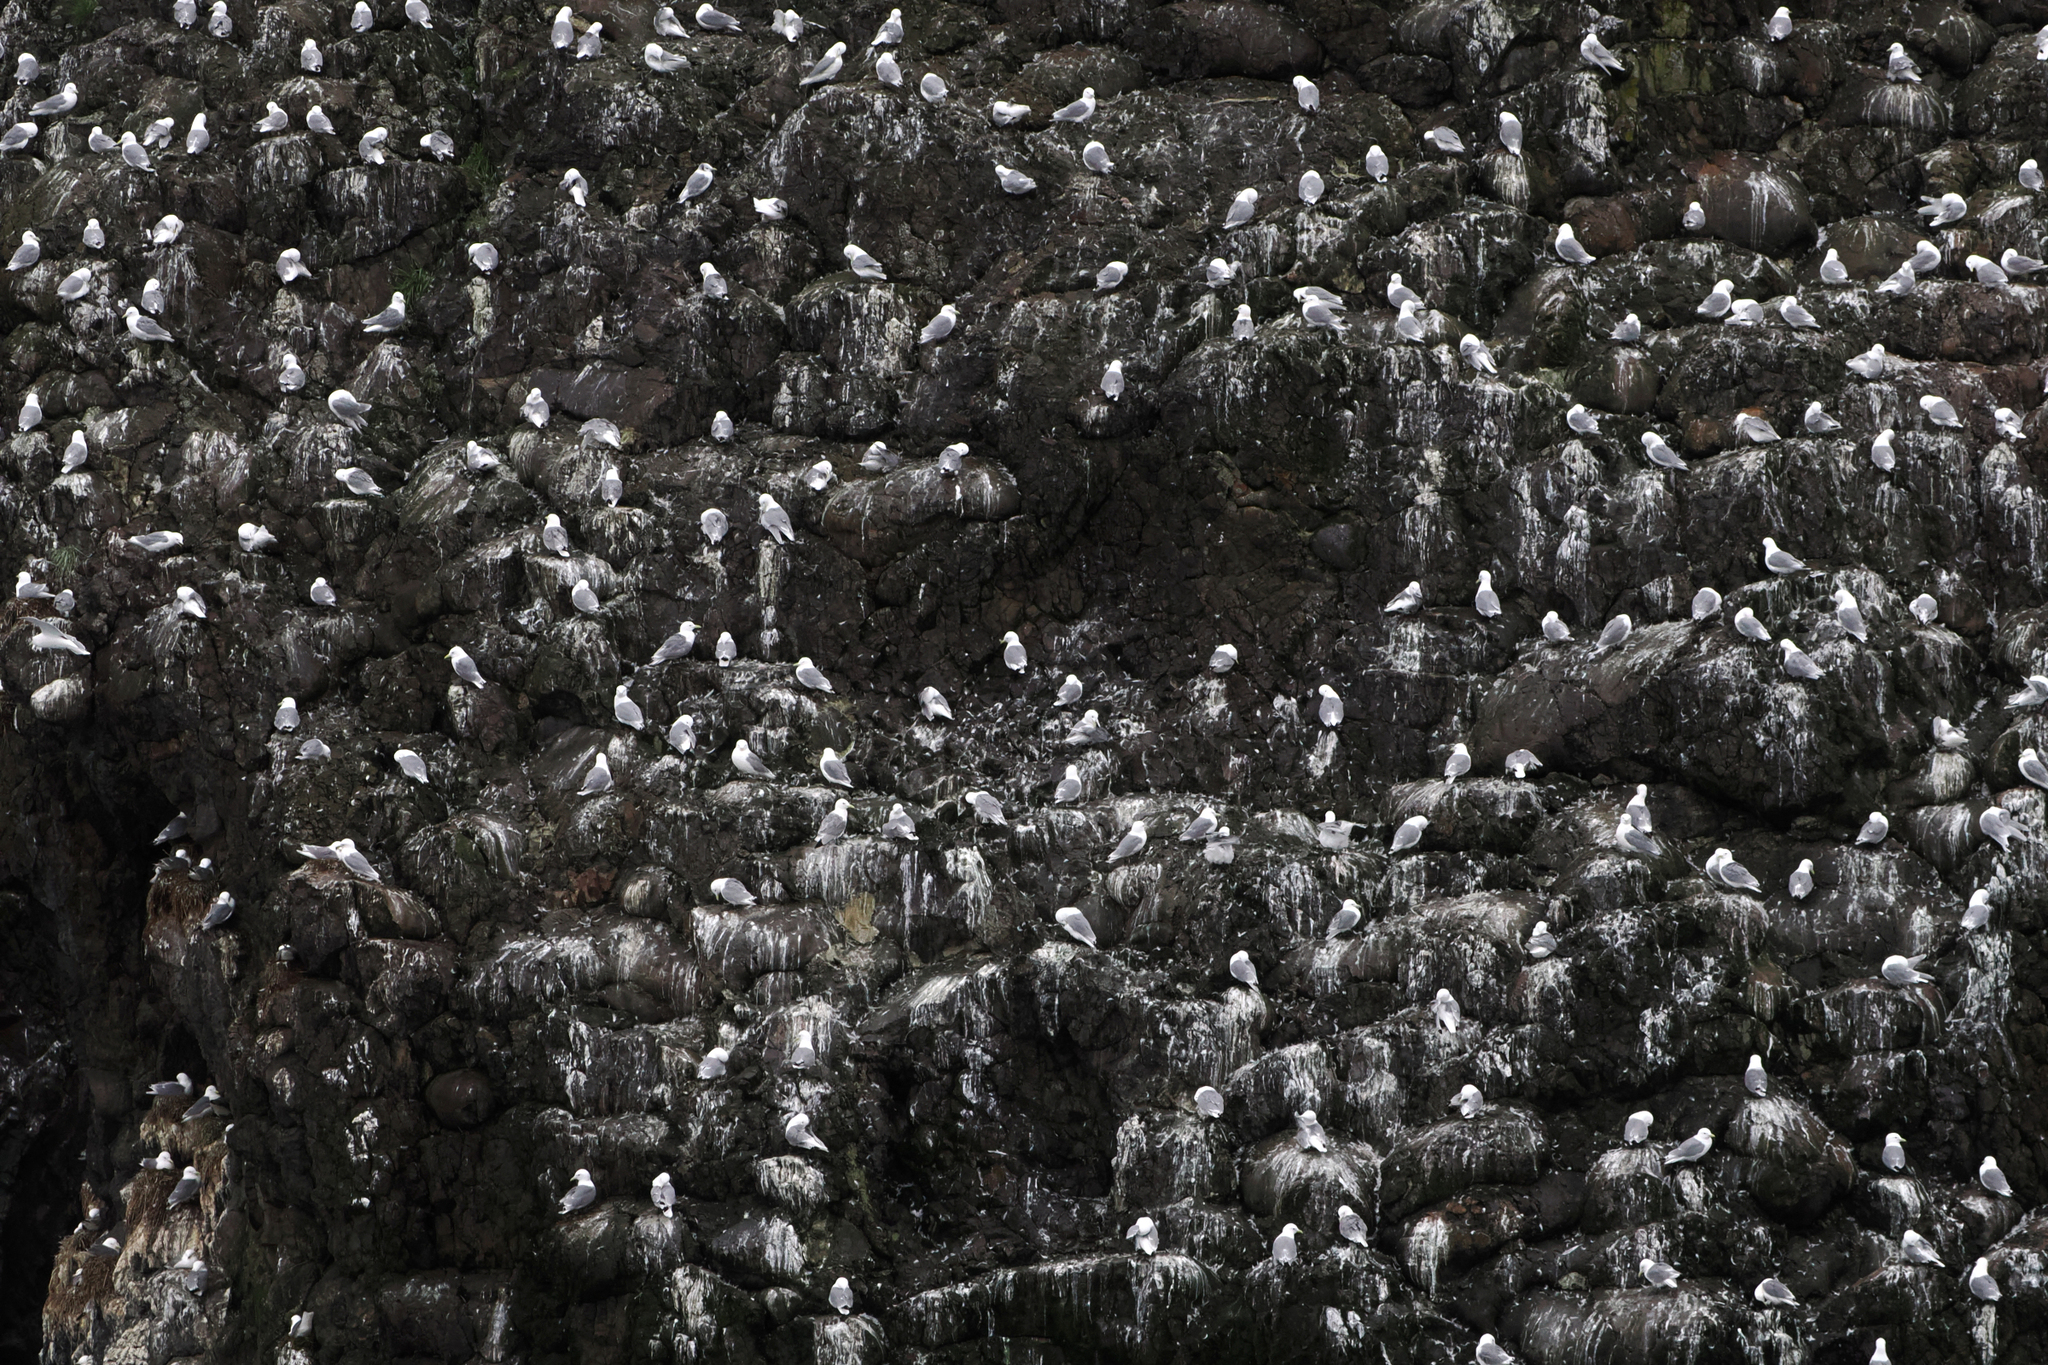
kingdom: Animalia
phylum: Chordata
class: Aves
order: Charadriiformes
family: Laridae
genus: Rissa
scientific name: Rissa tridactyla
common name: Black-legged kittiwake
